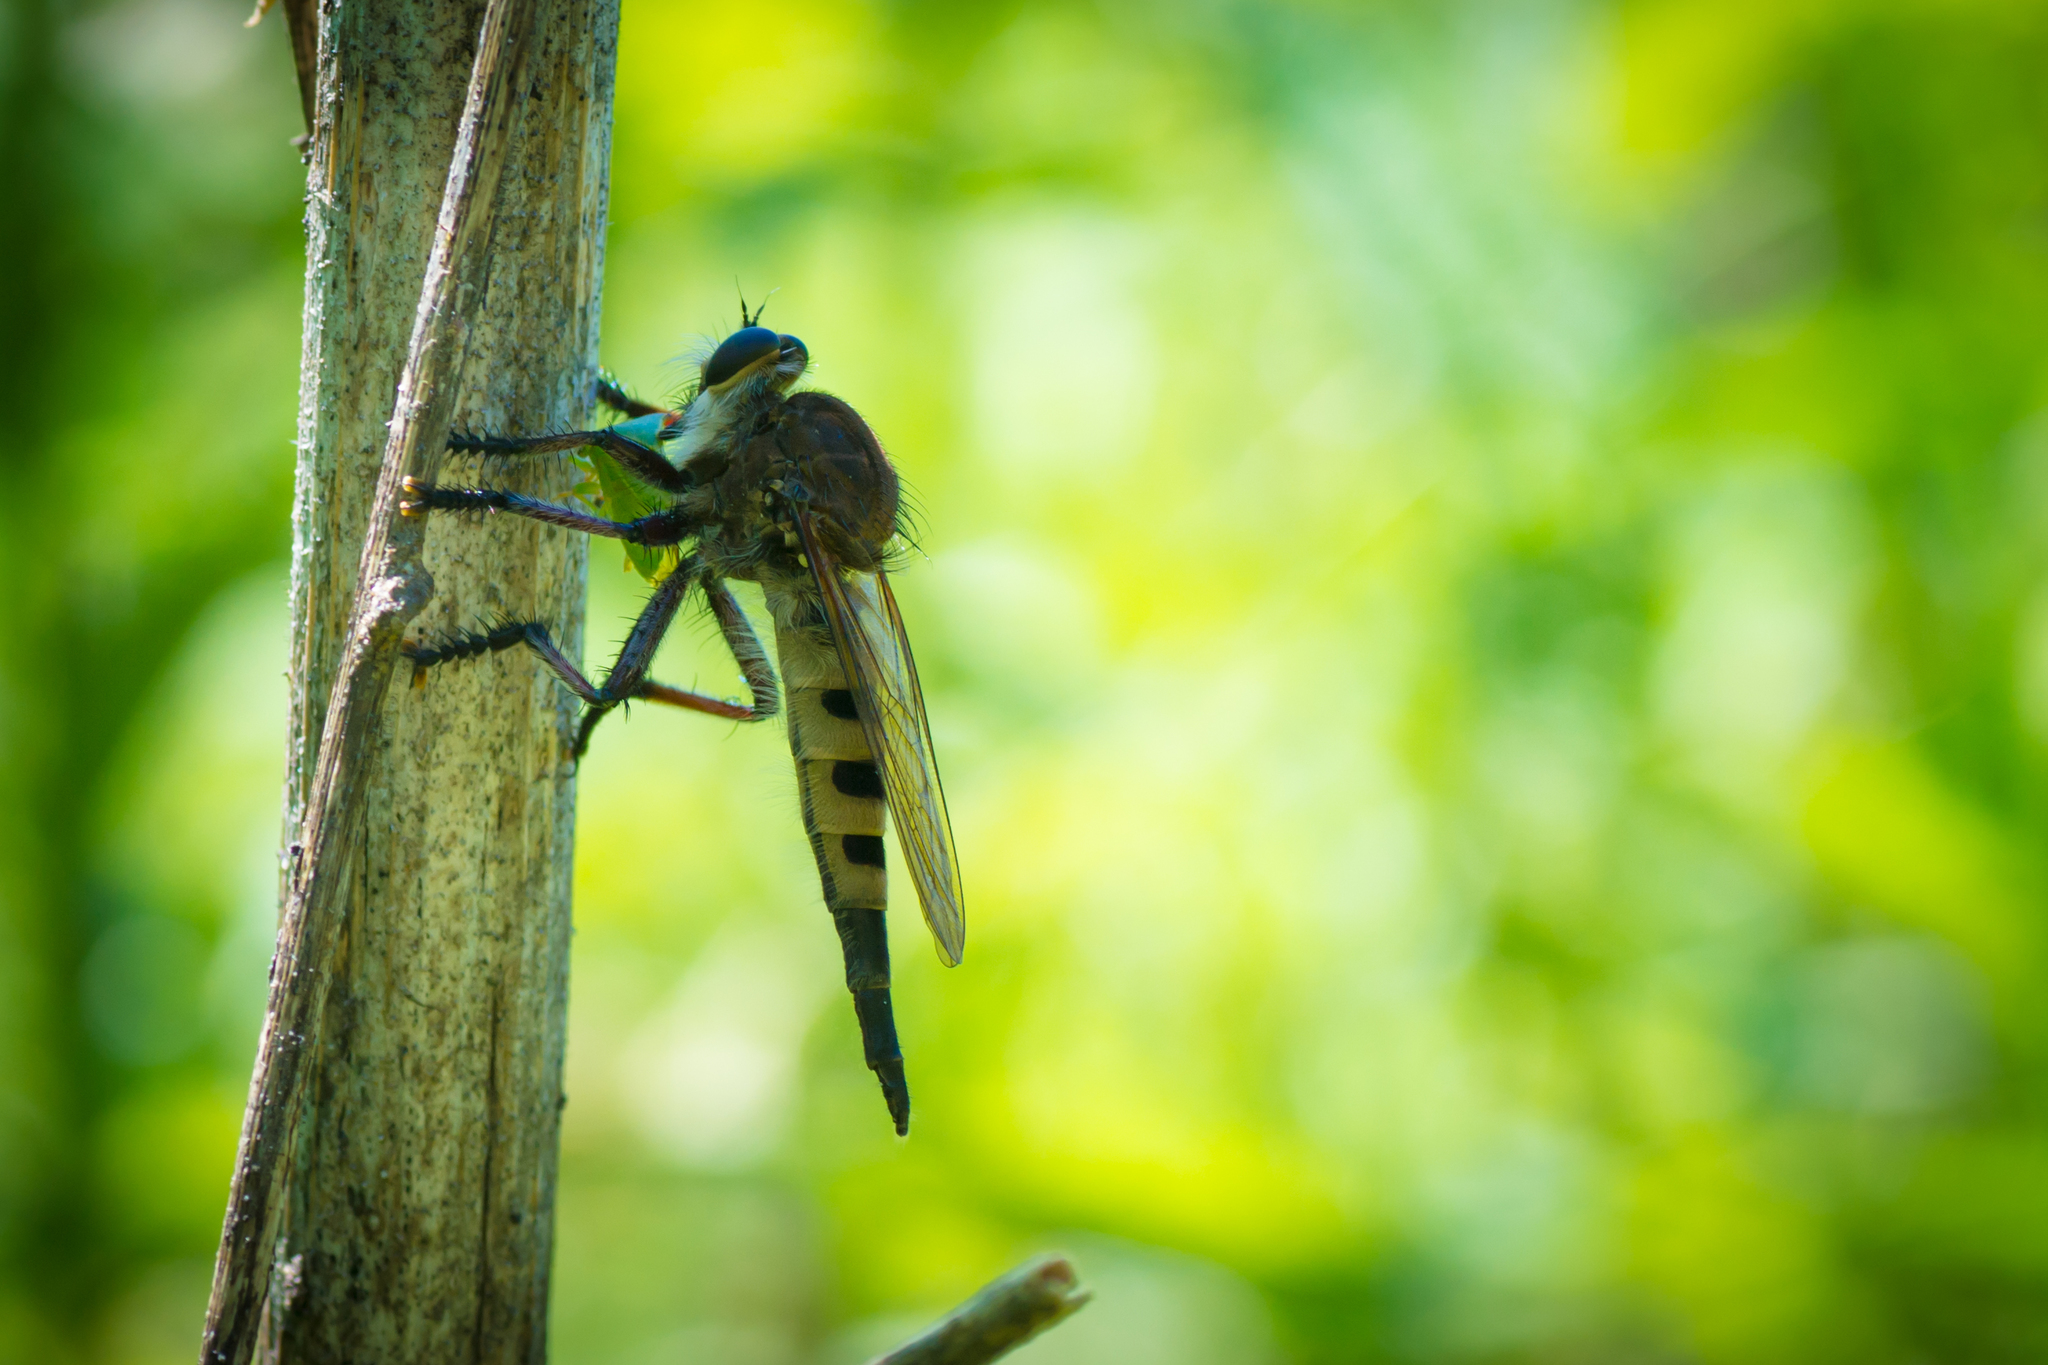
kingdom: Animalia
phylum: Arthropoda
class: Insecta
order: Diptera
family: Asilidae
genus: Promachus
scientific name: Promachus hinei
